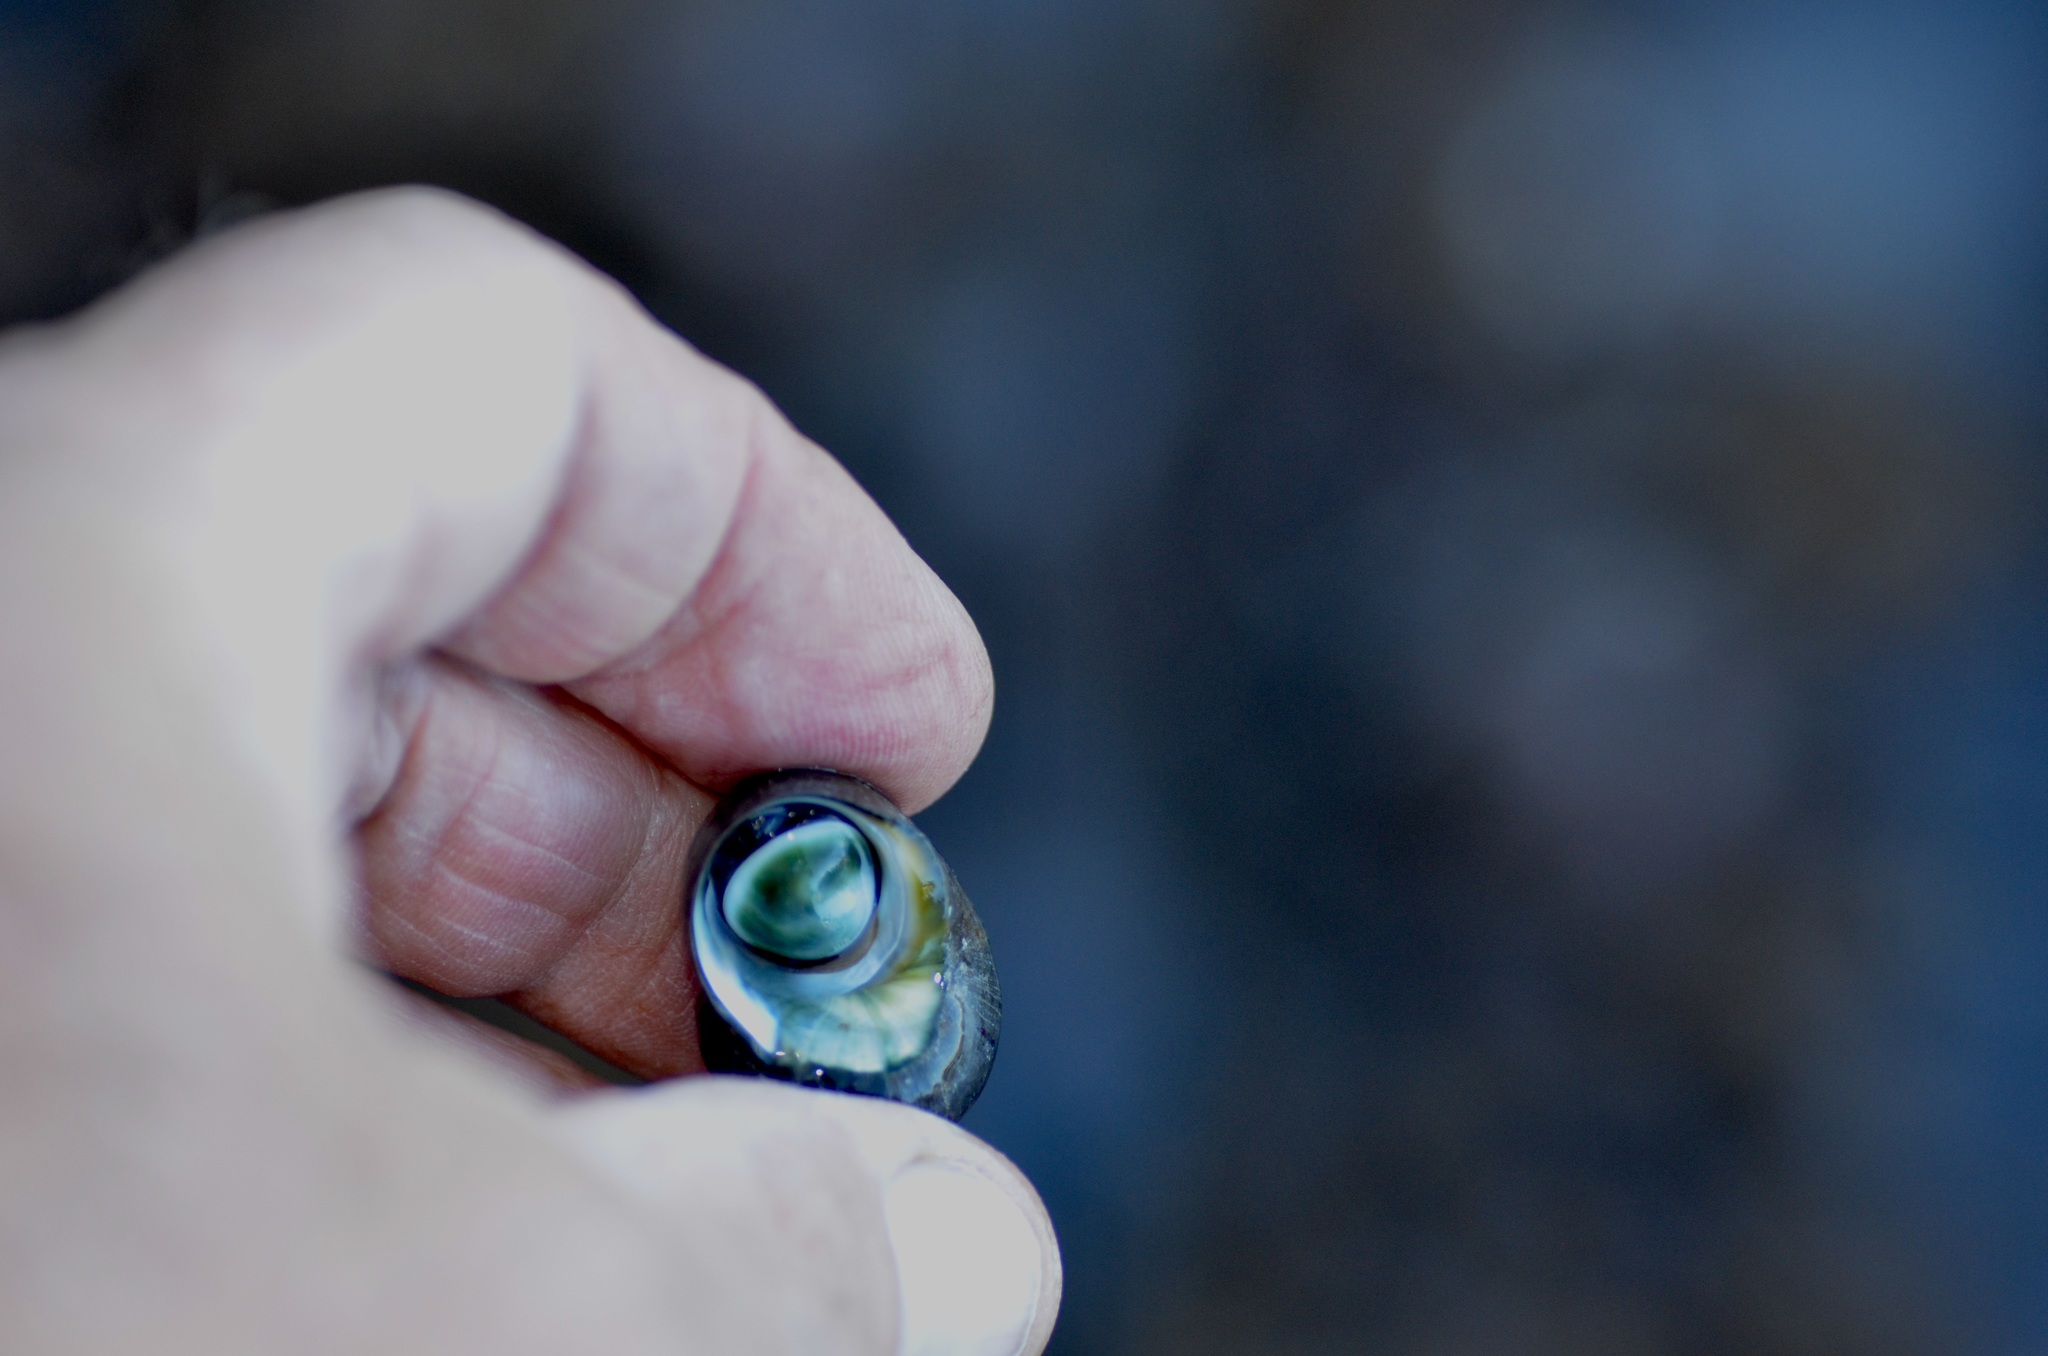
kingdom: Animalia
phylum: Mollusca
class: Gastropoda
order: Trochida
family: Turbinidae
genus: Lunella
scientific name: Lunella smaragda
